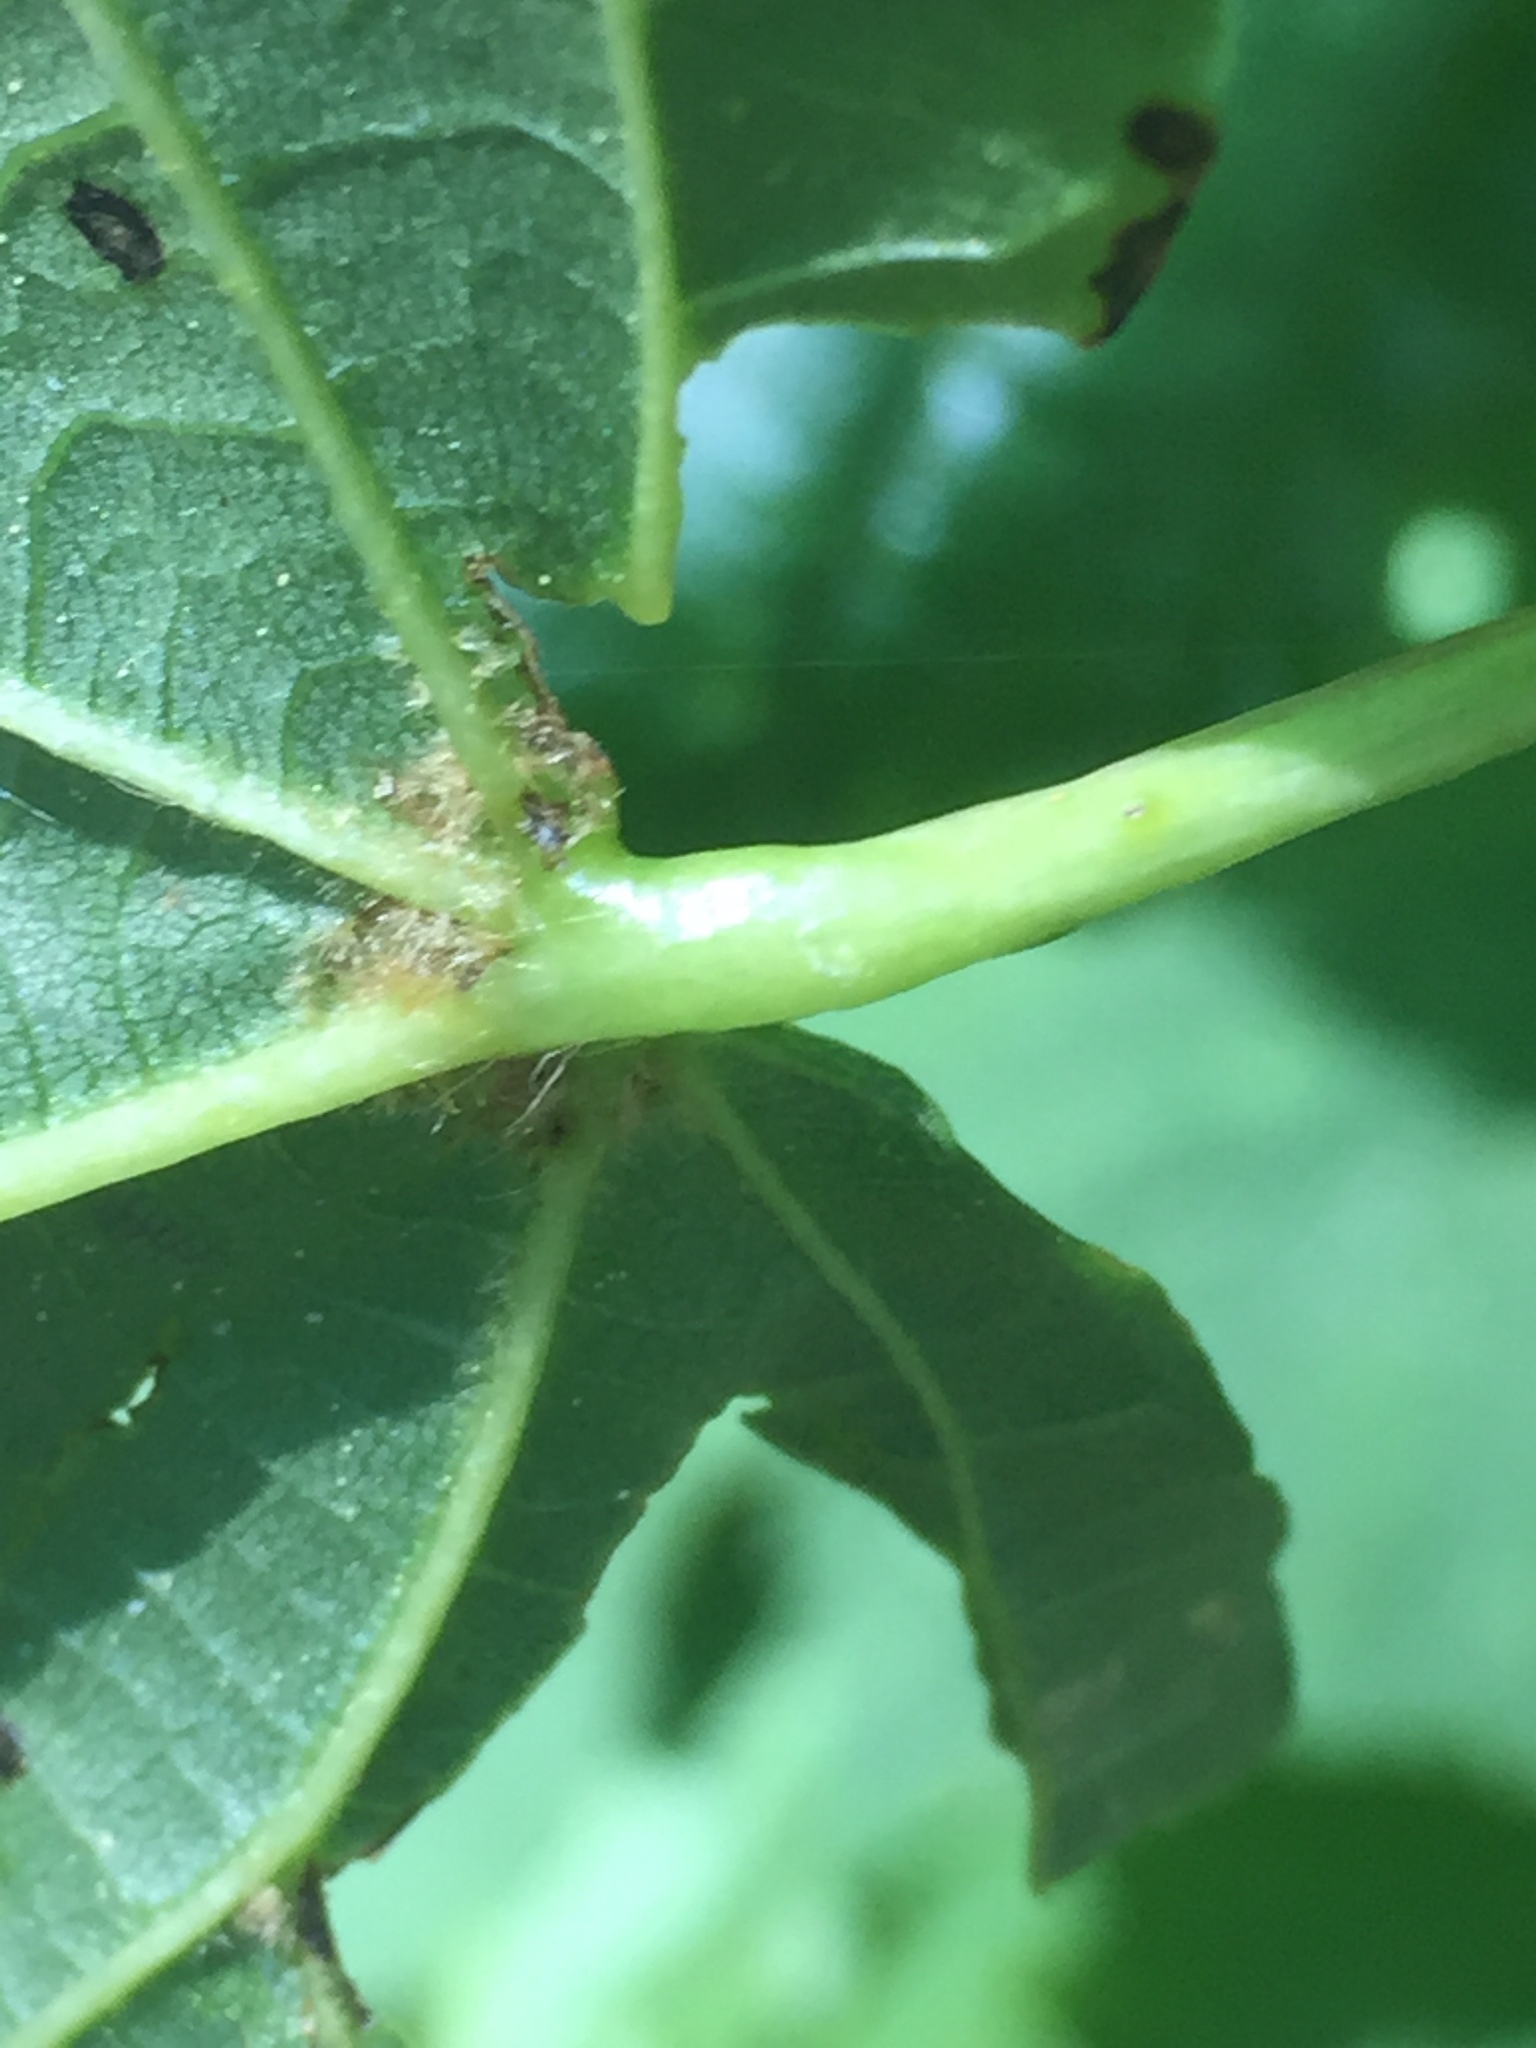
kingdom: Plantae
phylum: Tracheophyta
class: Magnoliopsida
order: Malvales
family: Malvaceae
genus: Tilia
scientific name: Tilia cordata
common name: Small-leaved lime
